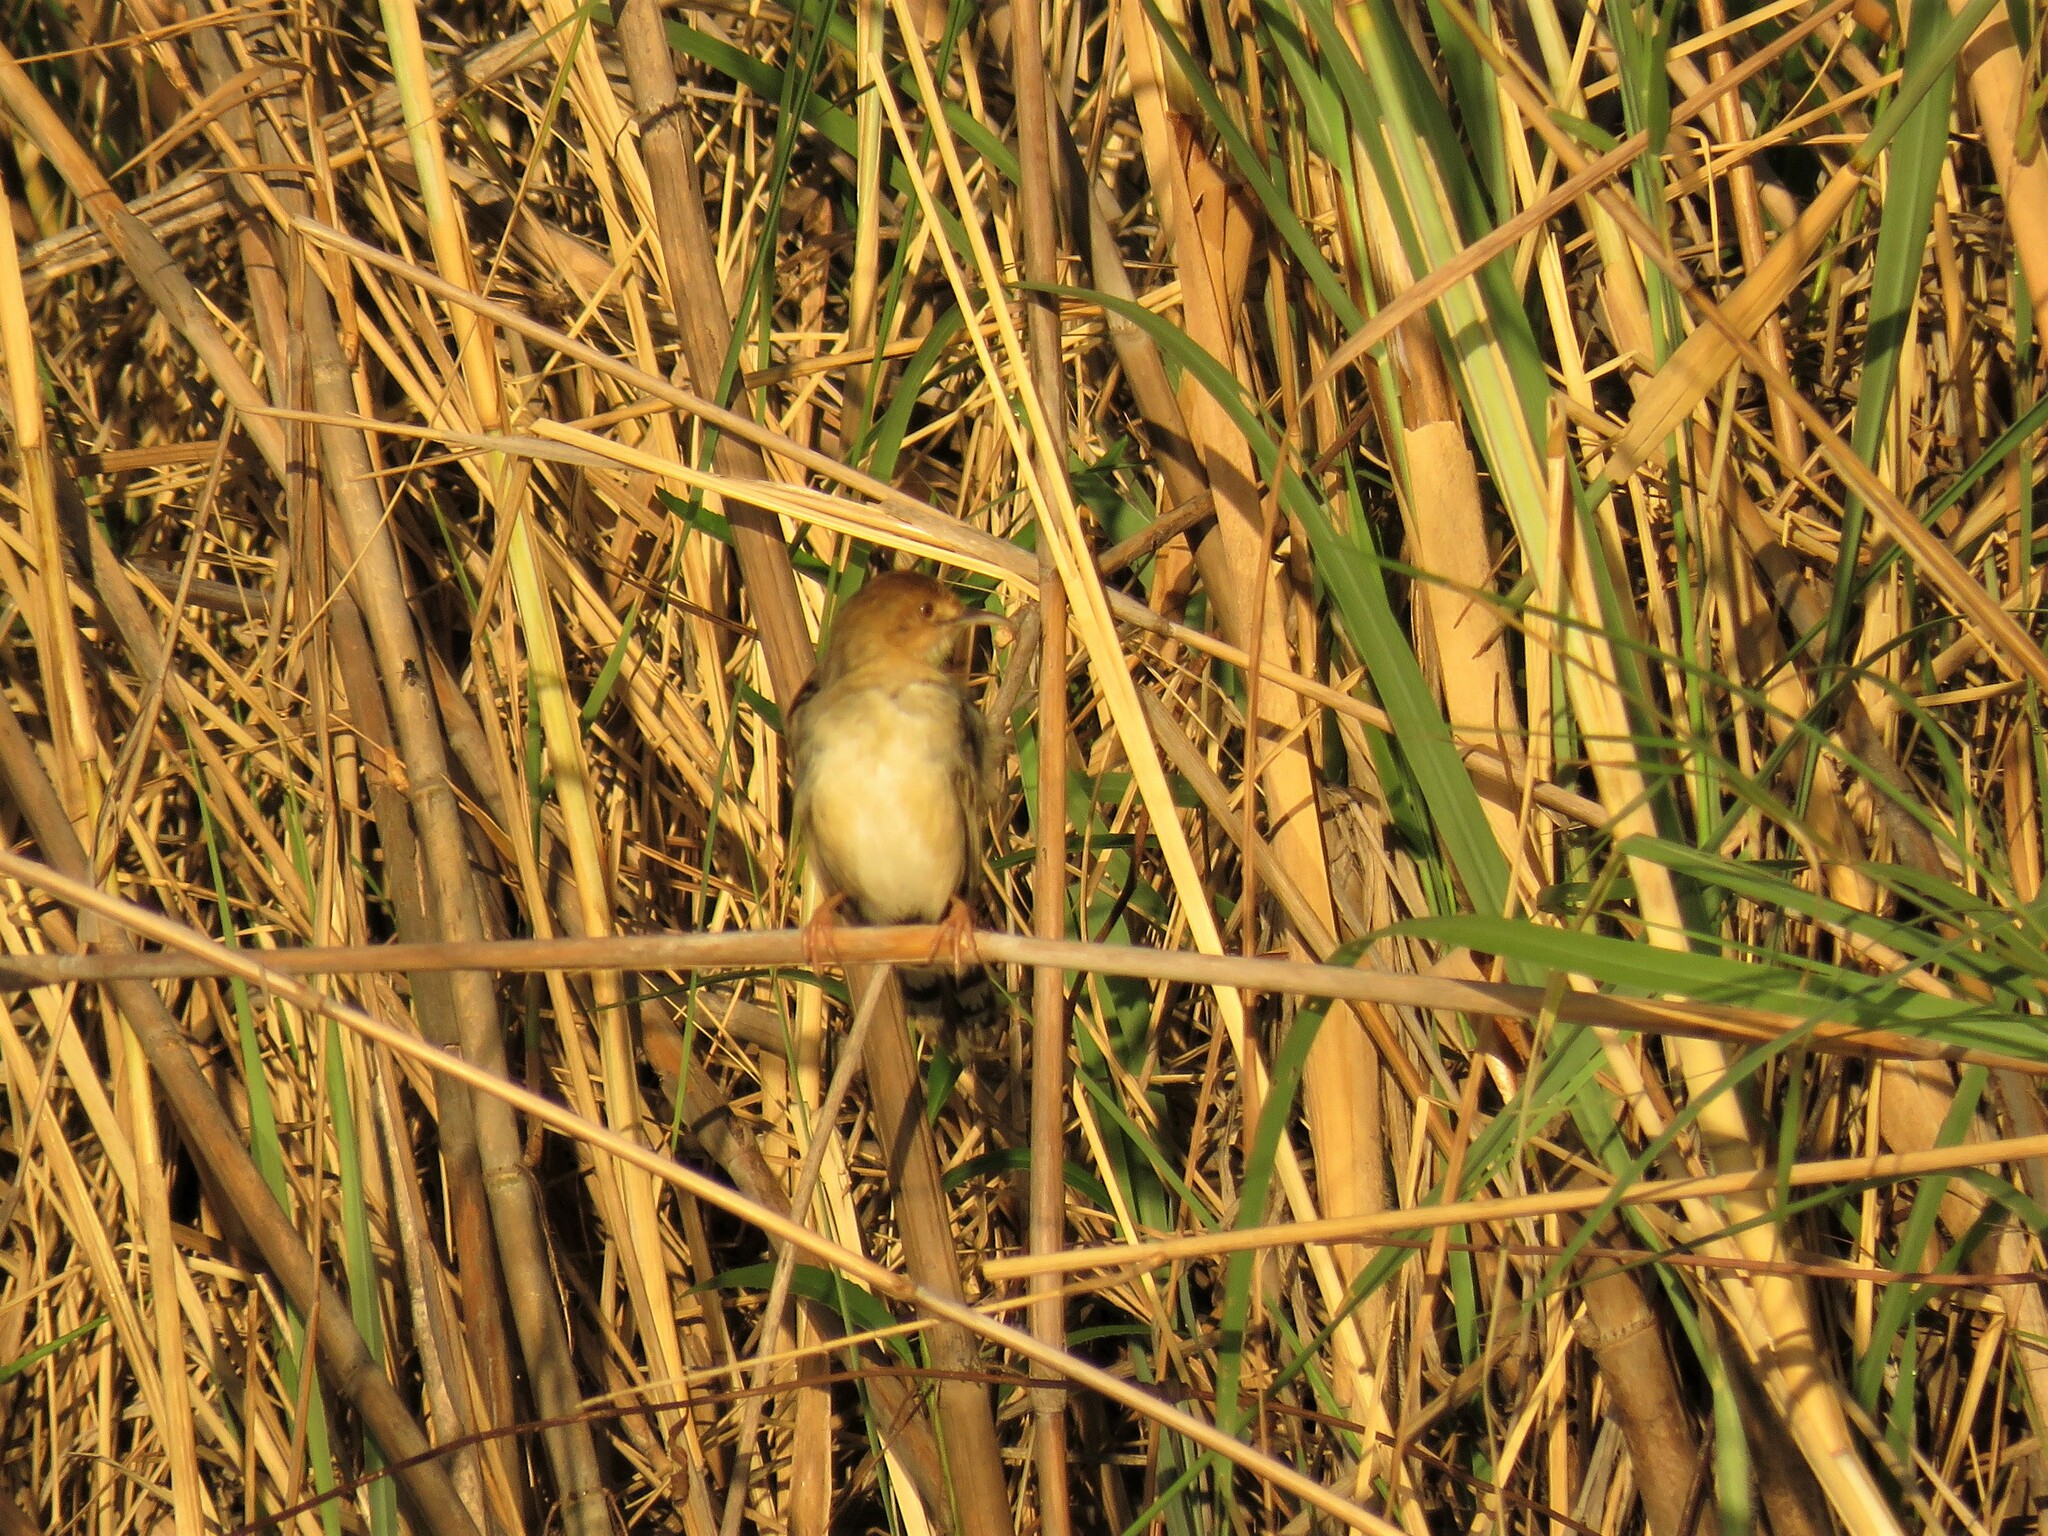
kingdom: Animalia
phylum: Chordata
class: Aves
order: Passeriformes
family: Cisticolidae
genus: Cisticola
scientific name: Cisticola pipiens
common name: Chirping cisticola
